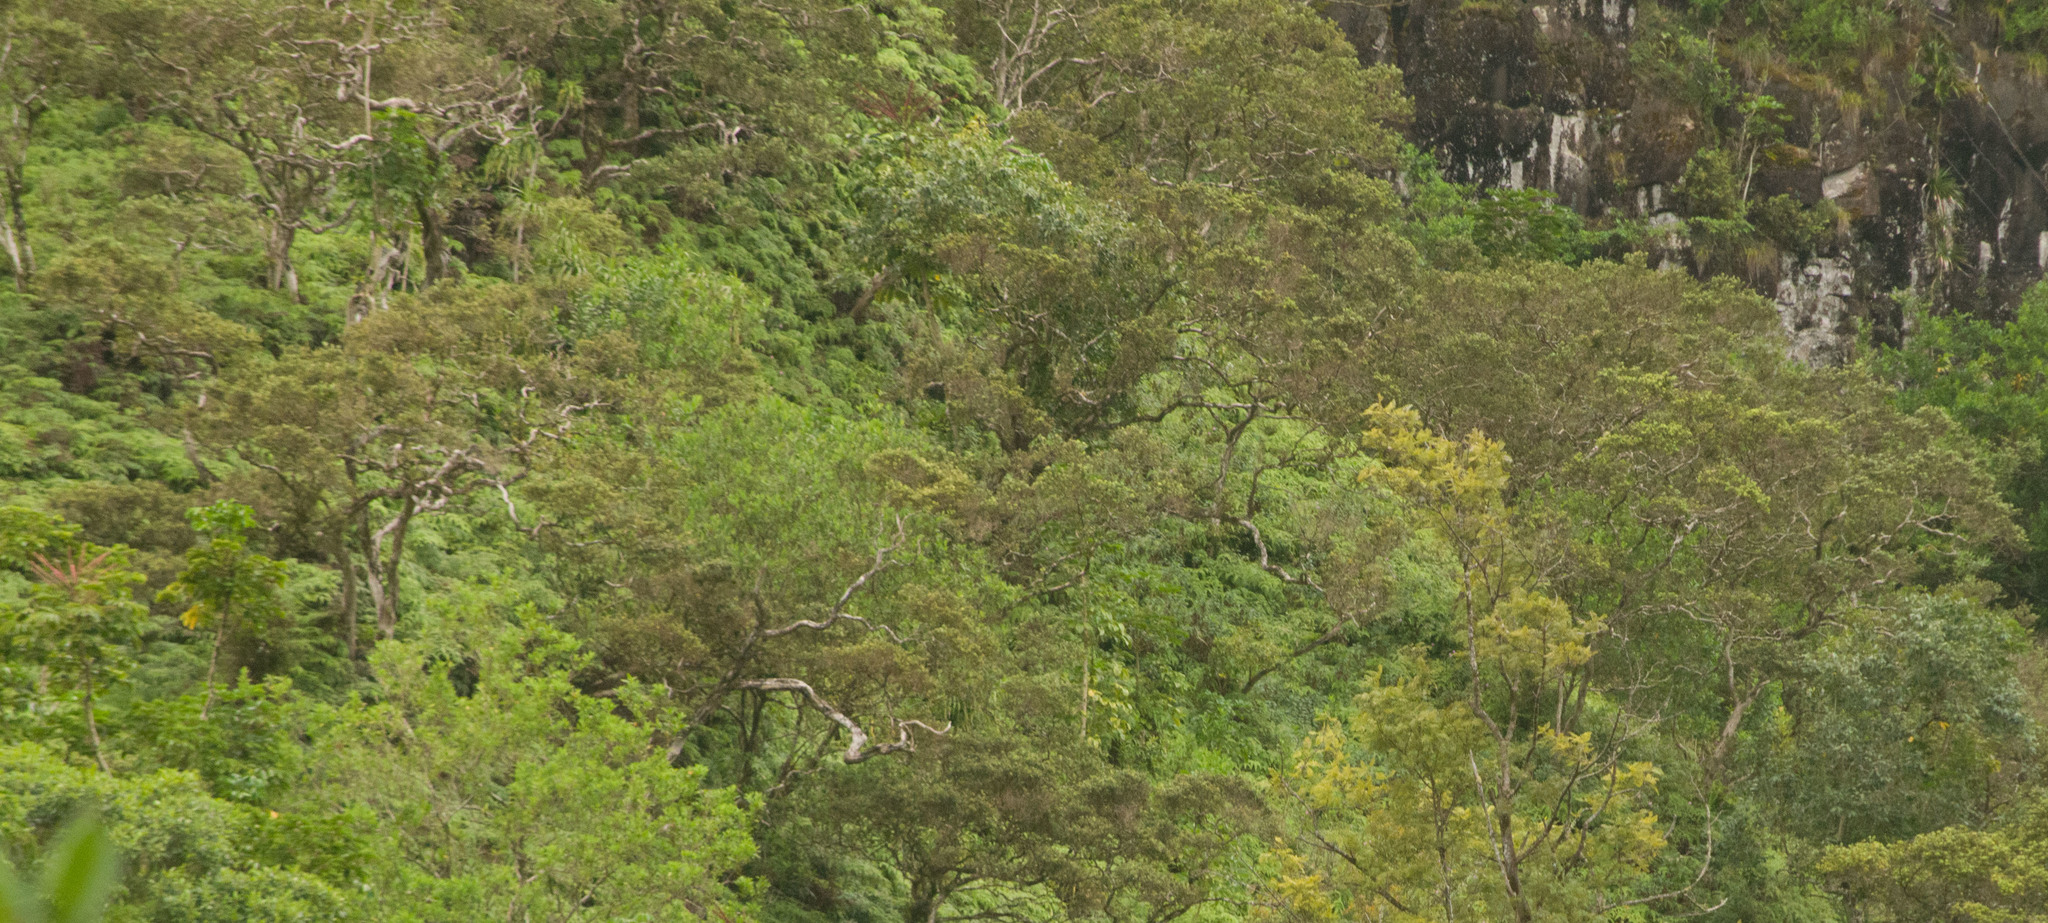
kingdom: Plantae
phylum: Tracheophyta
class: Magnoliopsida
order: Myrtales
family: Myrtaceae
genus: Metrosideros
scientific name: Metrosideros polymorpha
